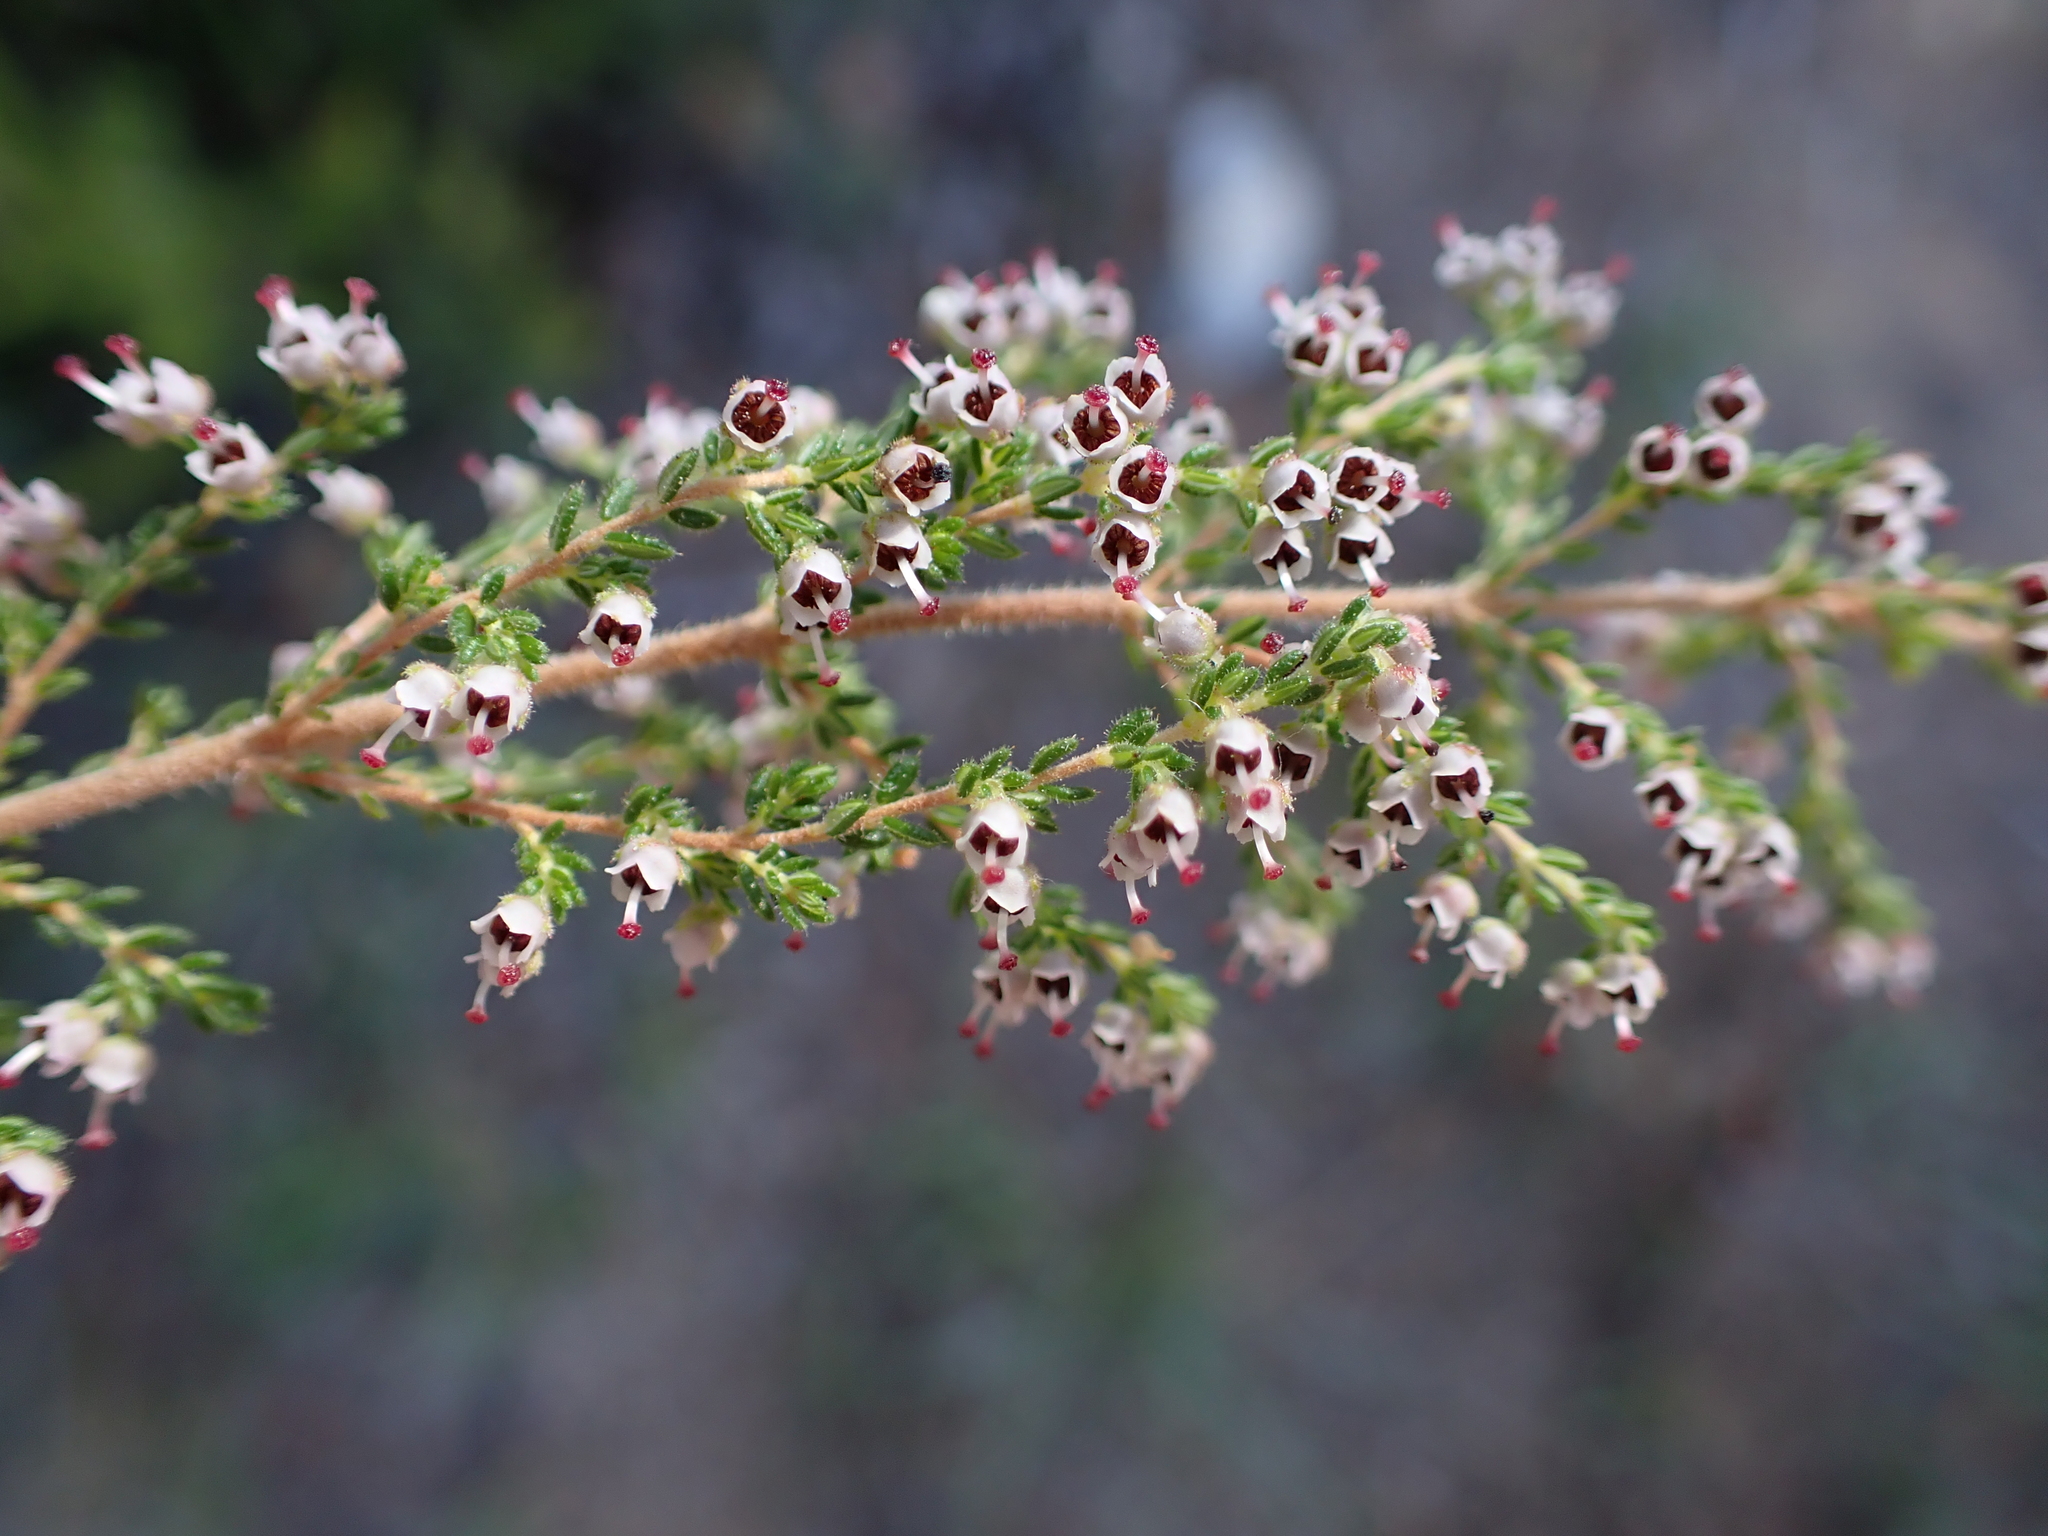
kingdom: Plantae
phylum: Tracheophyta
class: Magnoliopsida
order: Ericales
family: Ericaceae
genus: Erica
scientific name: Erica hispidula
